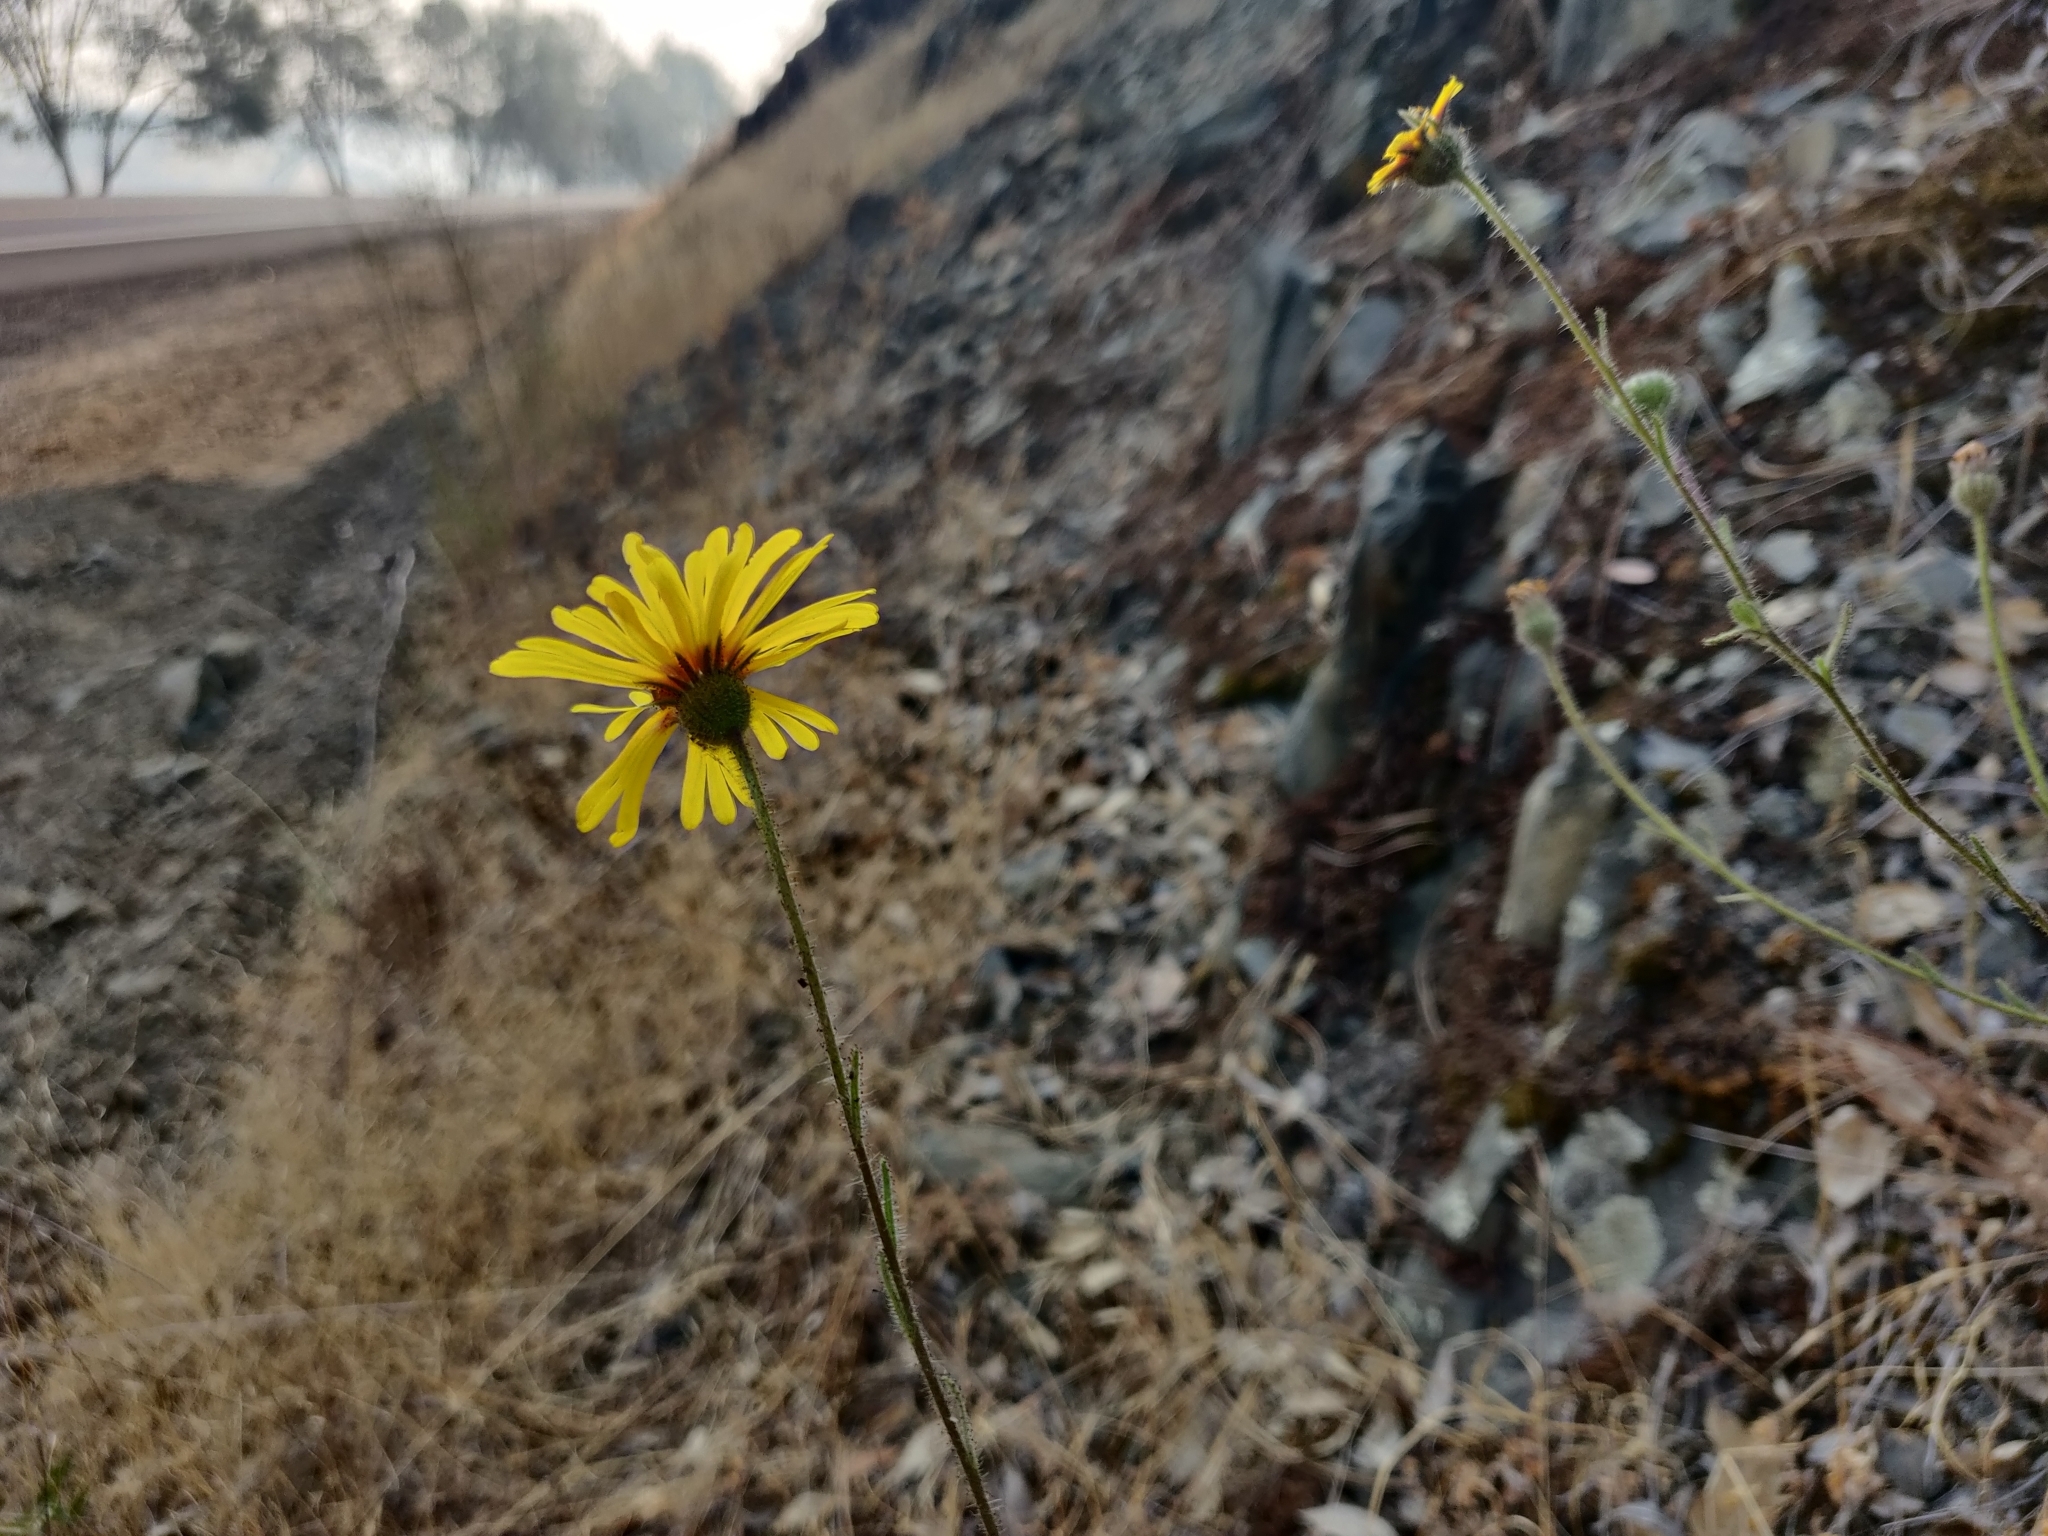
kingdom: Plantae
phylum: Tracheophyta
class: Magnoliopsida
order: Asterales
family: Asteraceae
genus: Madia
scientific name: Madia elegans
